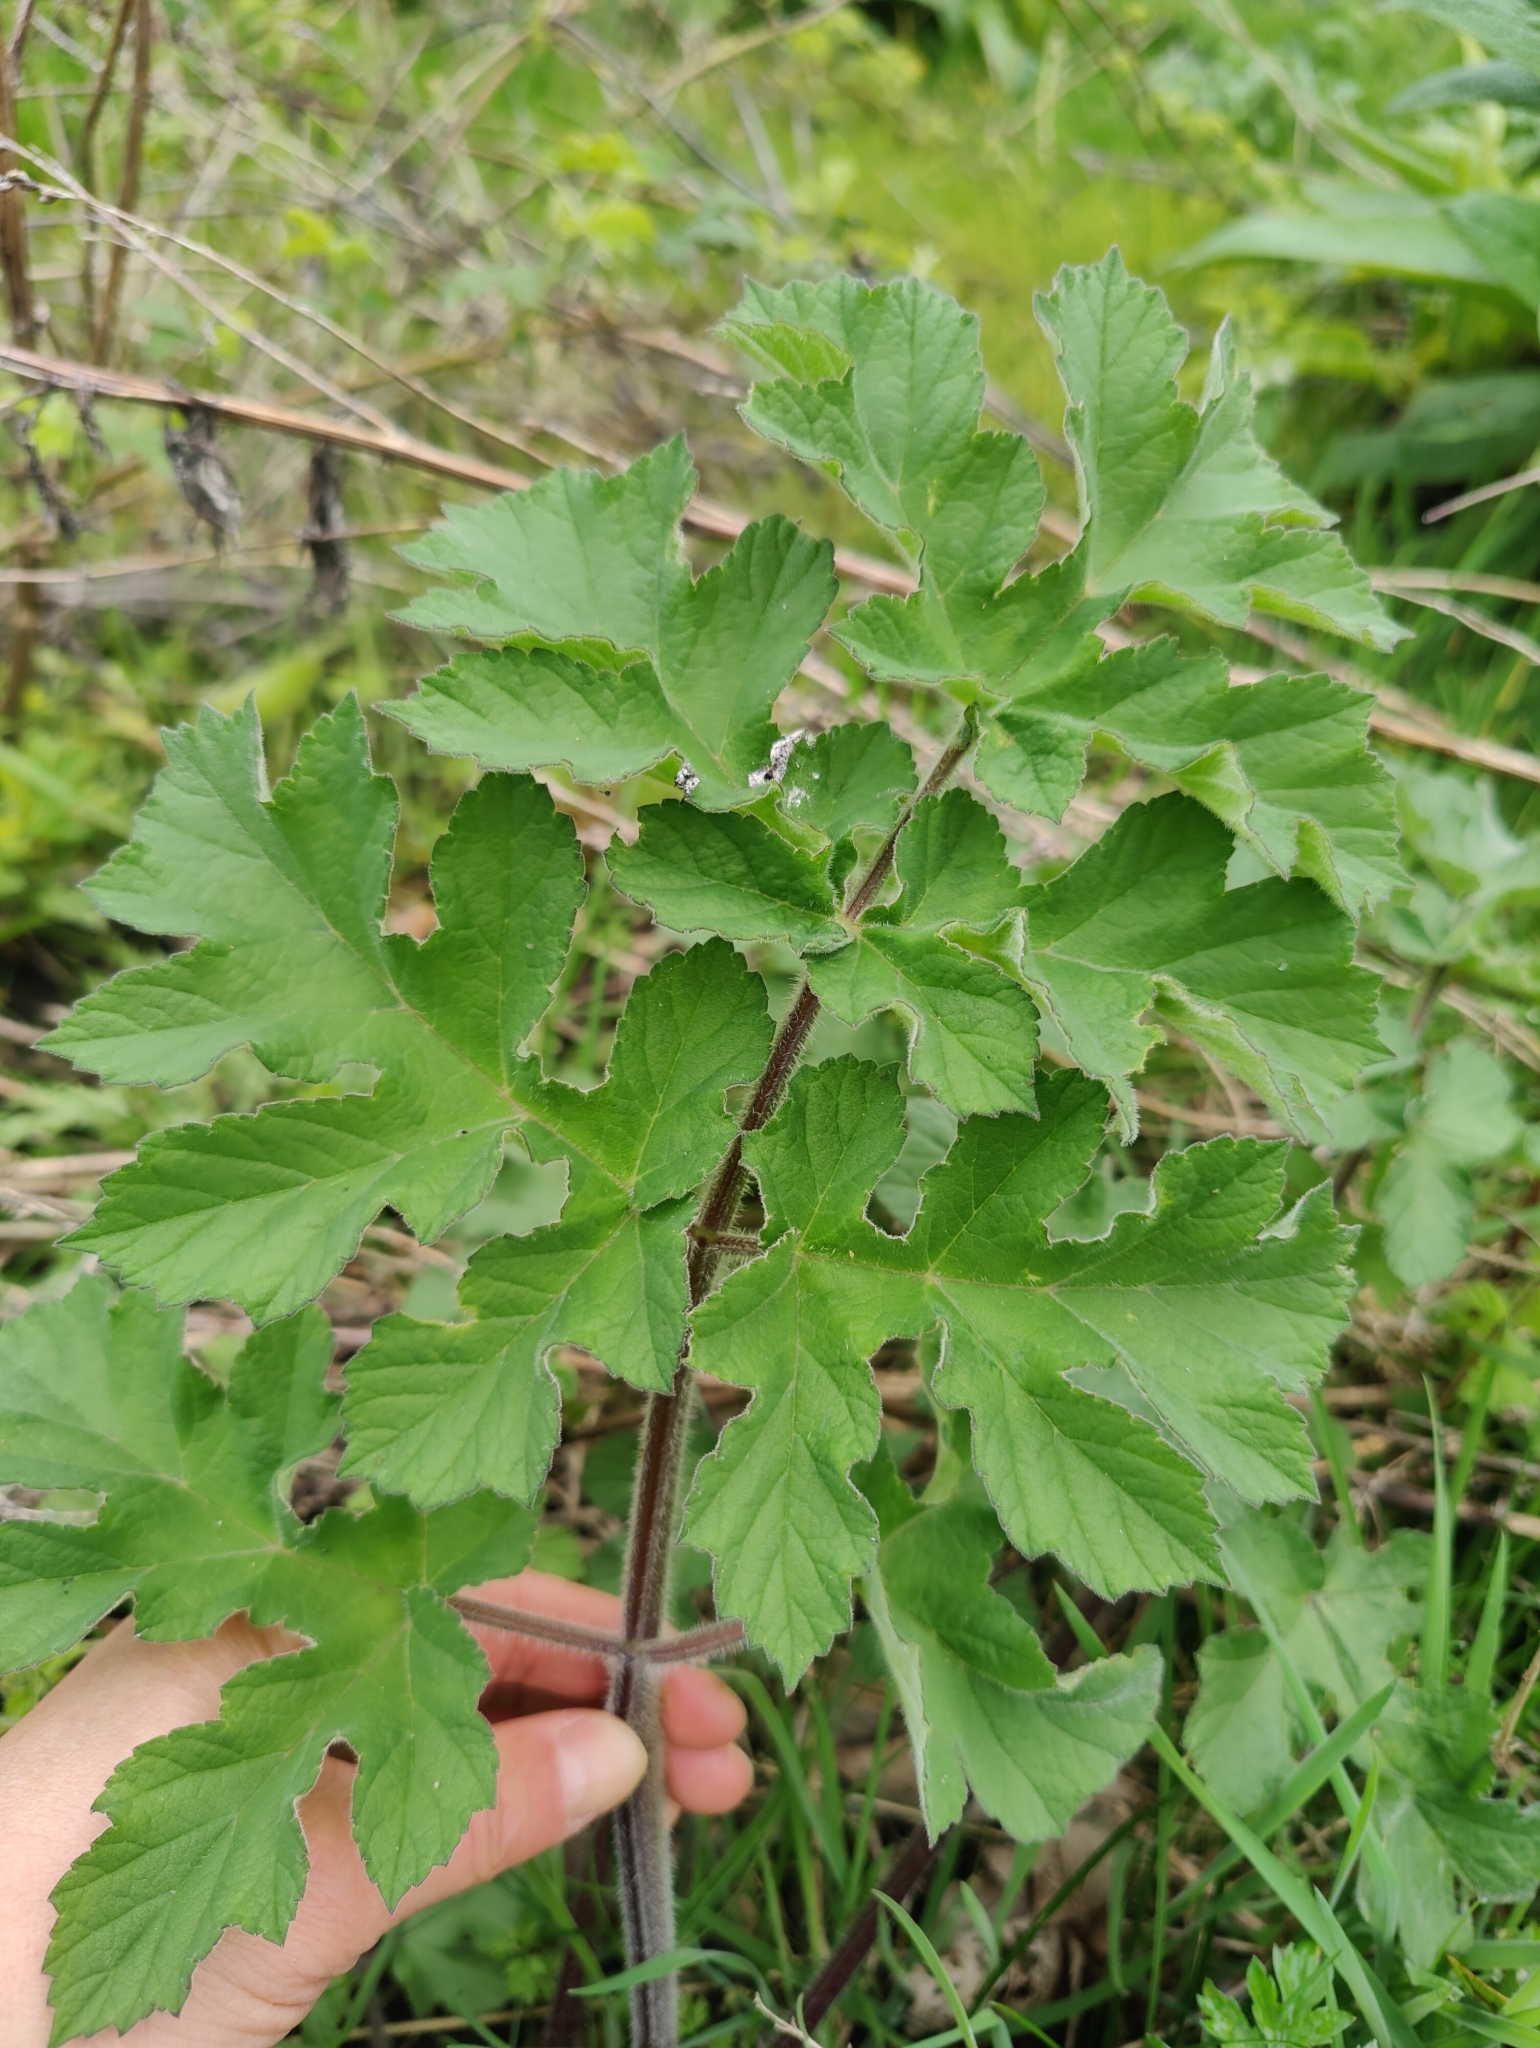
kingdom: Plantae
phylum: Tracheophyta
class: Magnoliopsida
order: Apiales
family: Apiaceae
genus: Heracleum
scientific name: Heracleum sphondylium
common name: Hogweed
